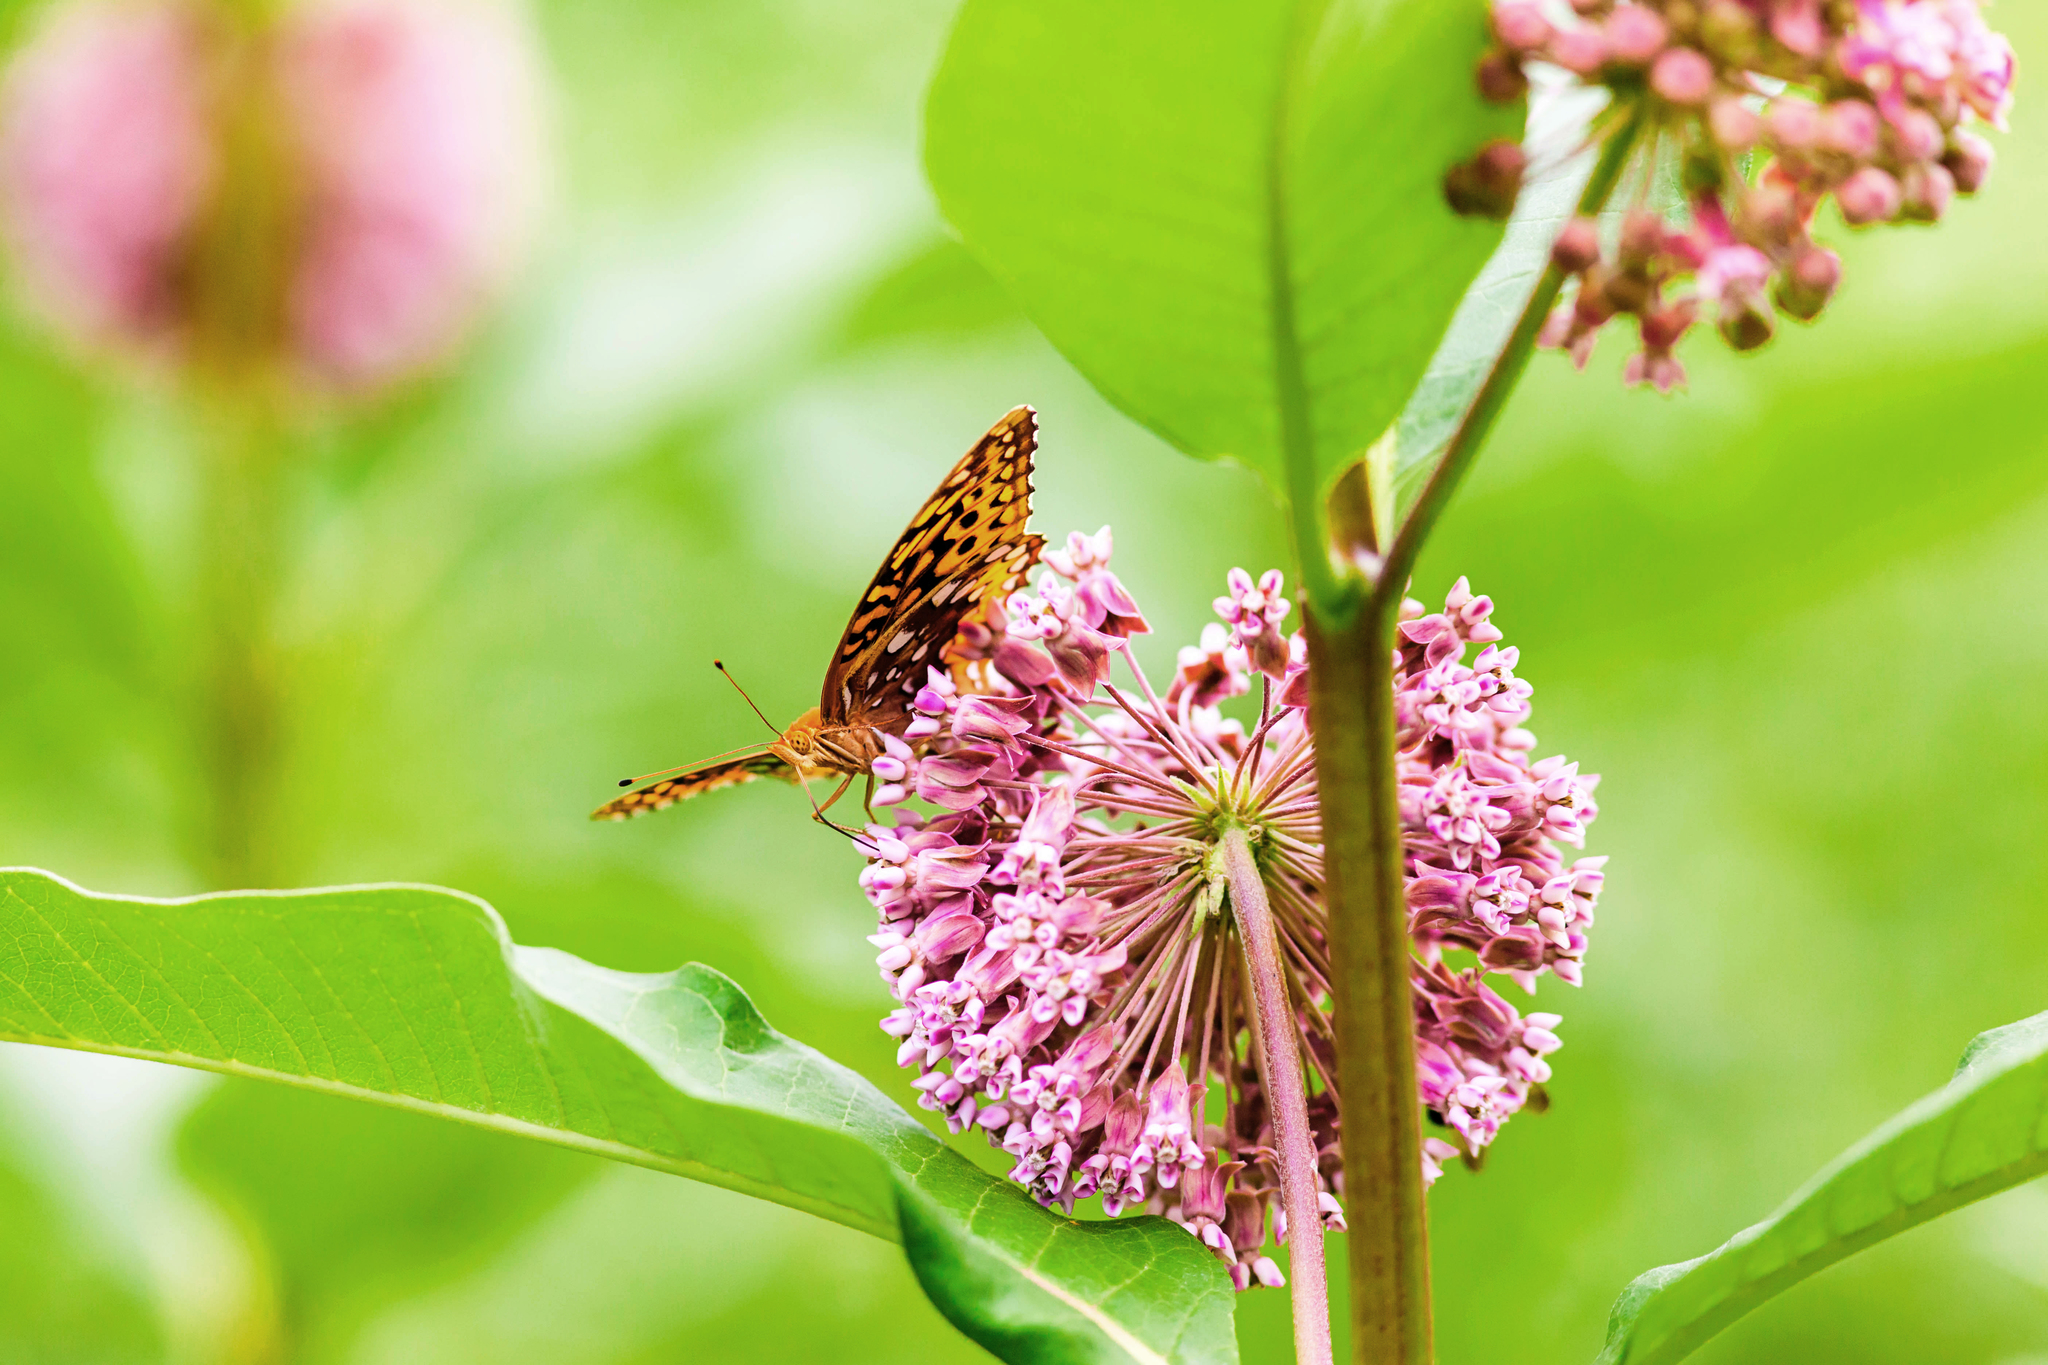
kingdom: Animalia
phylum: Arthropoda
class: Insecta
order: Lepidoptera
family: Nymphalidae
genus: Speyeria
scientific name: Speyeria cybele
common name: Great spangled fritillary
